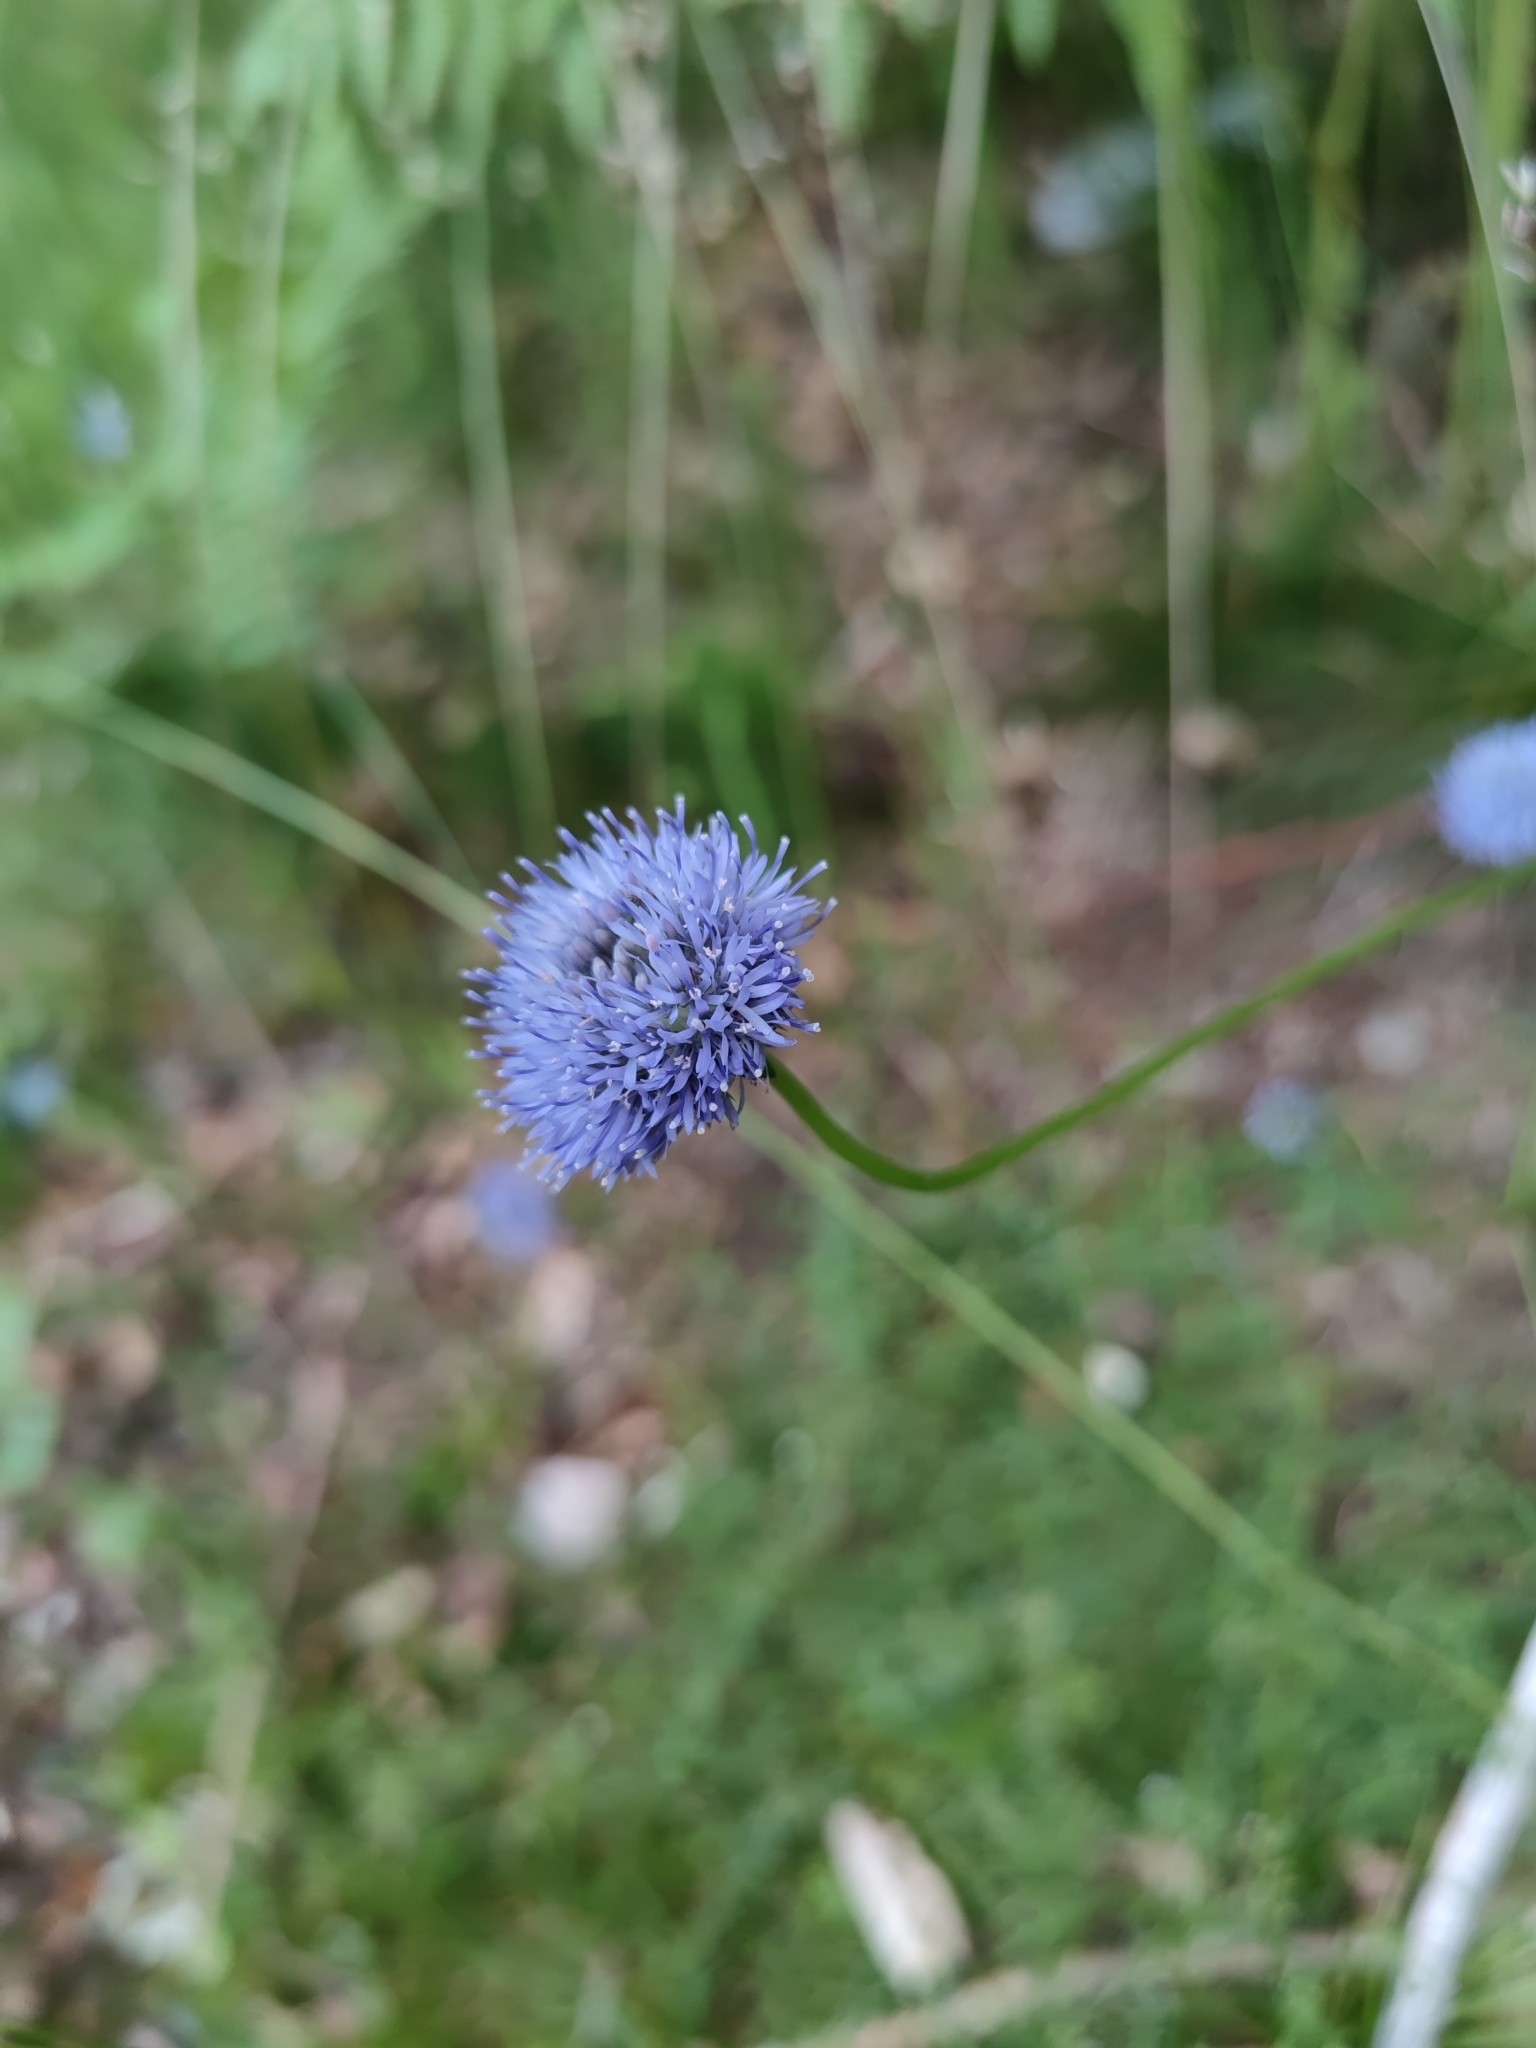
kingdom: Plantae
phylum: Tracheophyta
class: Magnoliopsida
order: Asterales
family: Campanulaceae
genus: Jasione
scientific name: Jasione montana
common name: Sheep's-bit
